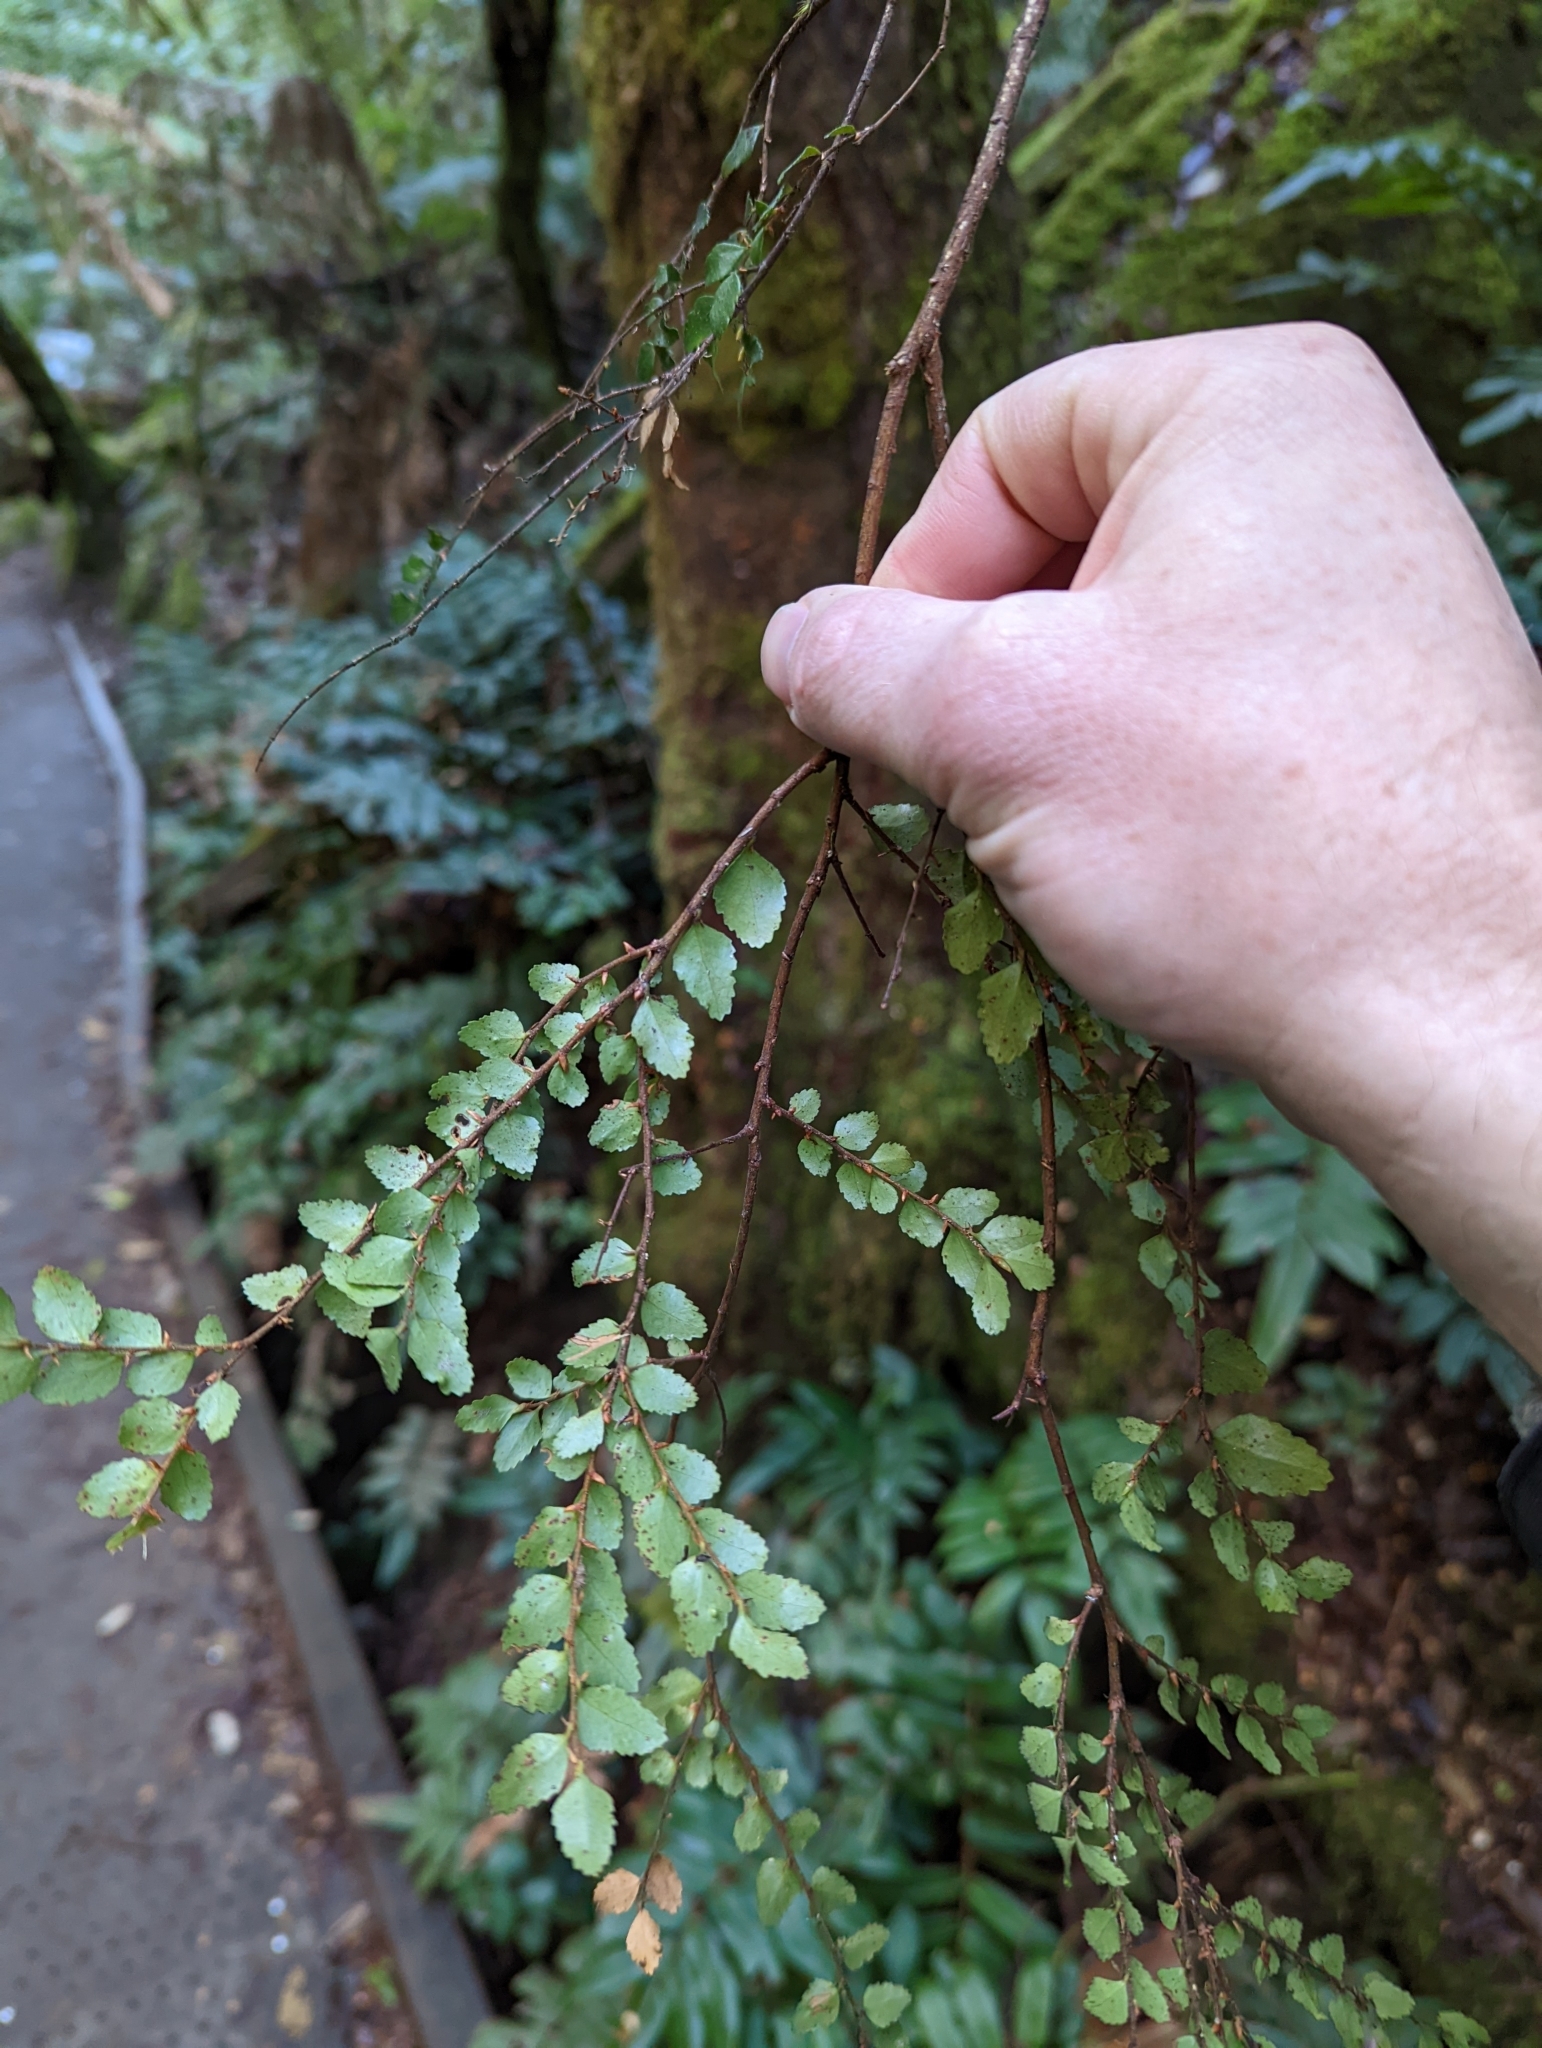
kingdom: Plantae
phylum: Tracheophyta
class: Magnoliopsida
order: Fagales
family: Nothofagaceae
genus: Nothofagus
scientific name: Nothofagus cunninghamii
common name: Myrtle beech
